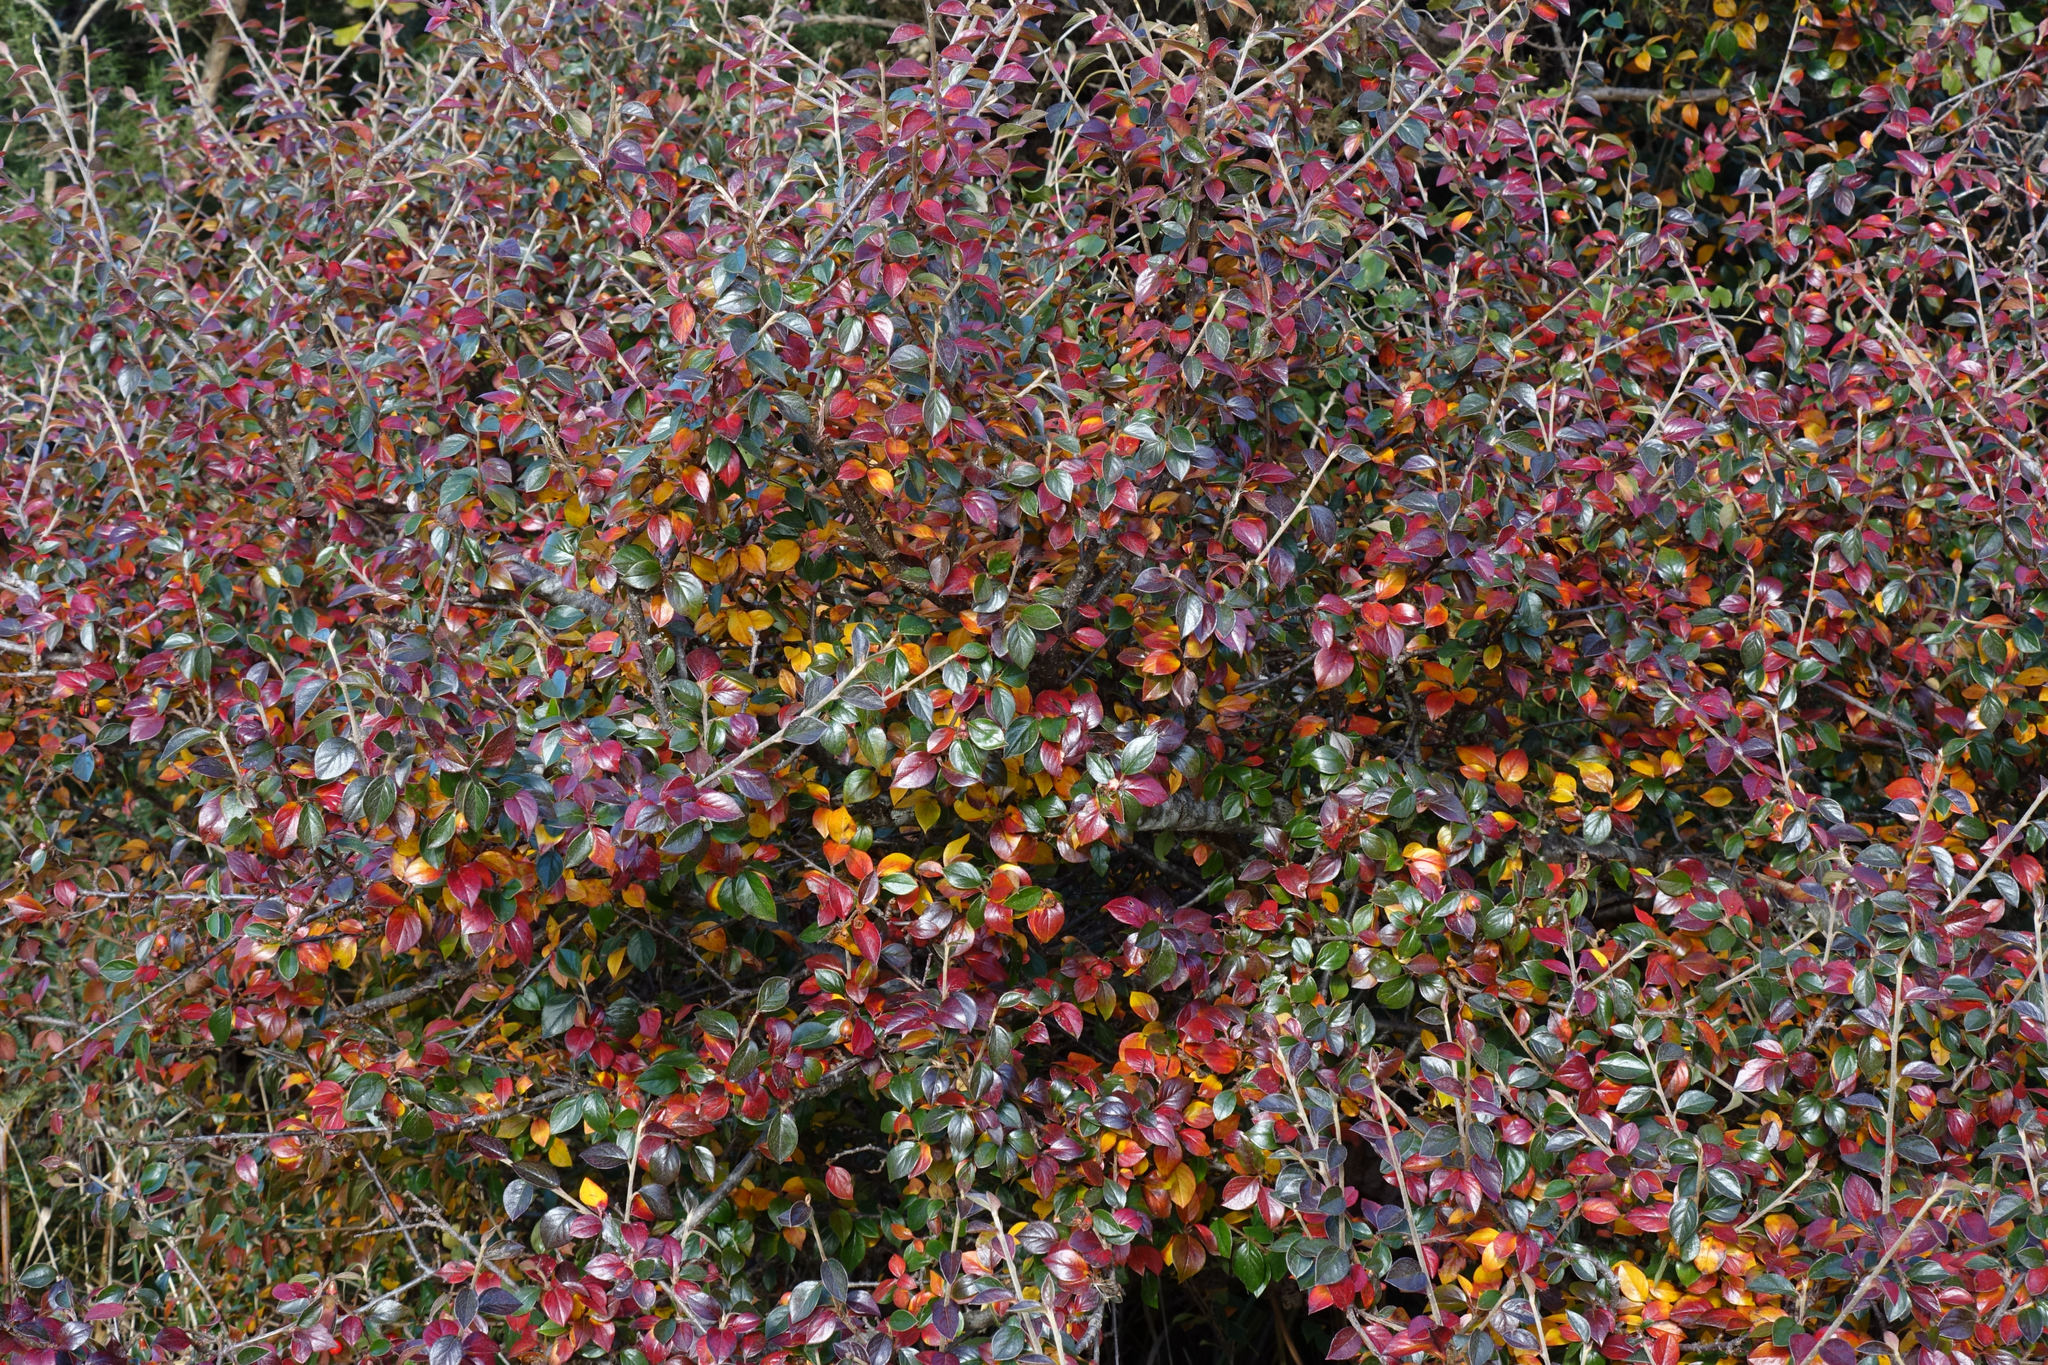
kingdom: Plantae
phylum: Tracheophyta
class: Magnoliopsida
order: Rosales
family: Rosaceae
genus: Cotoneaster
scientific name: Cotoneaster simonsii
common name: Himalayan cotoneaster
